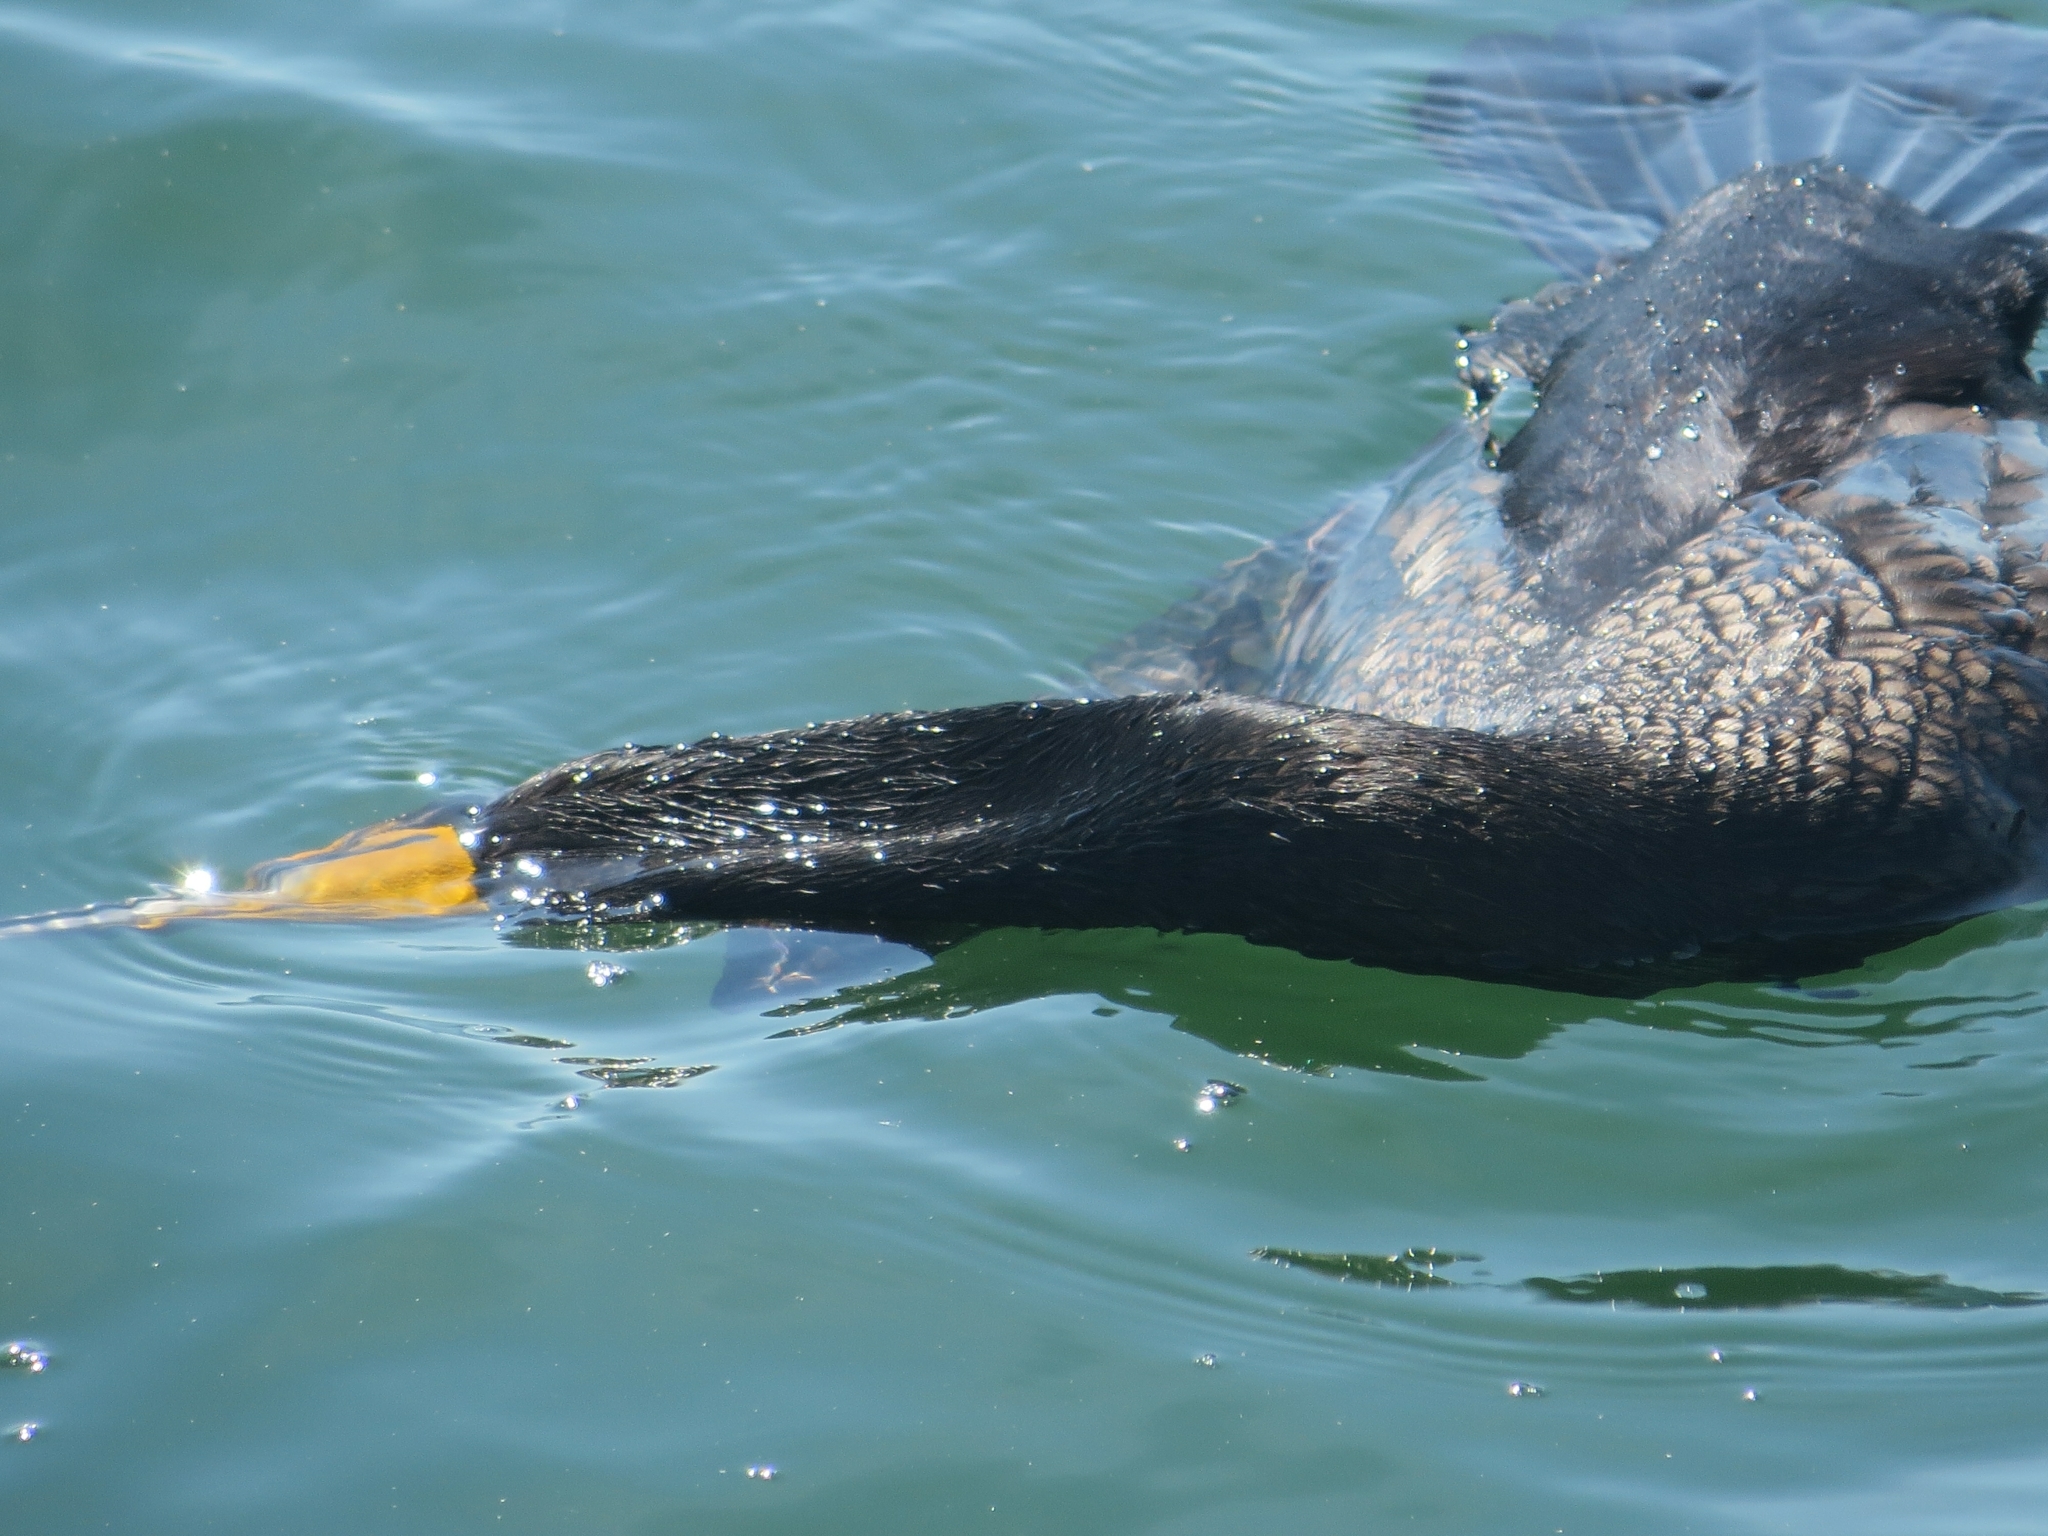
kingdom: Animalia
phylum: Chordata
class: Aves
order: Suliformes
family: Phalacrocoracidae
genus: Phalacrocorax
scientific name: Phalacrocorax auritus
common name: Double-crested cormorant
